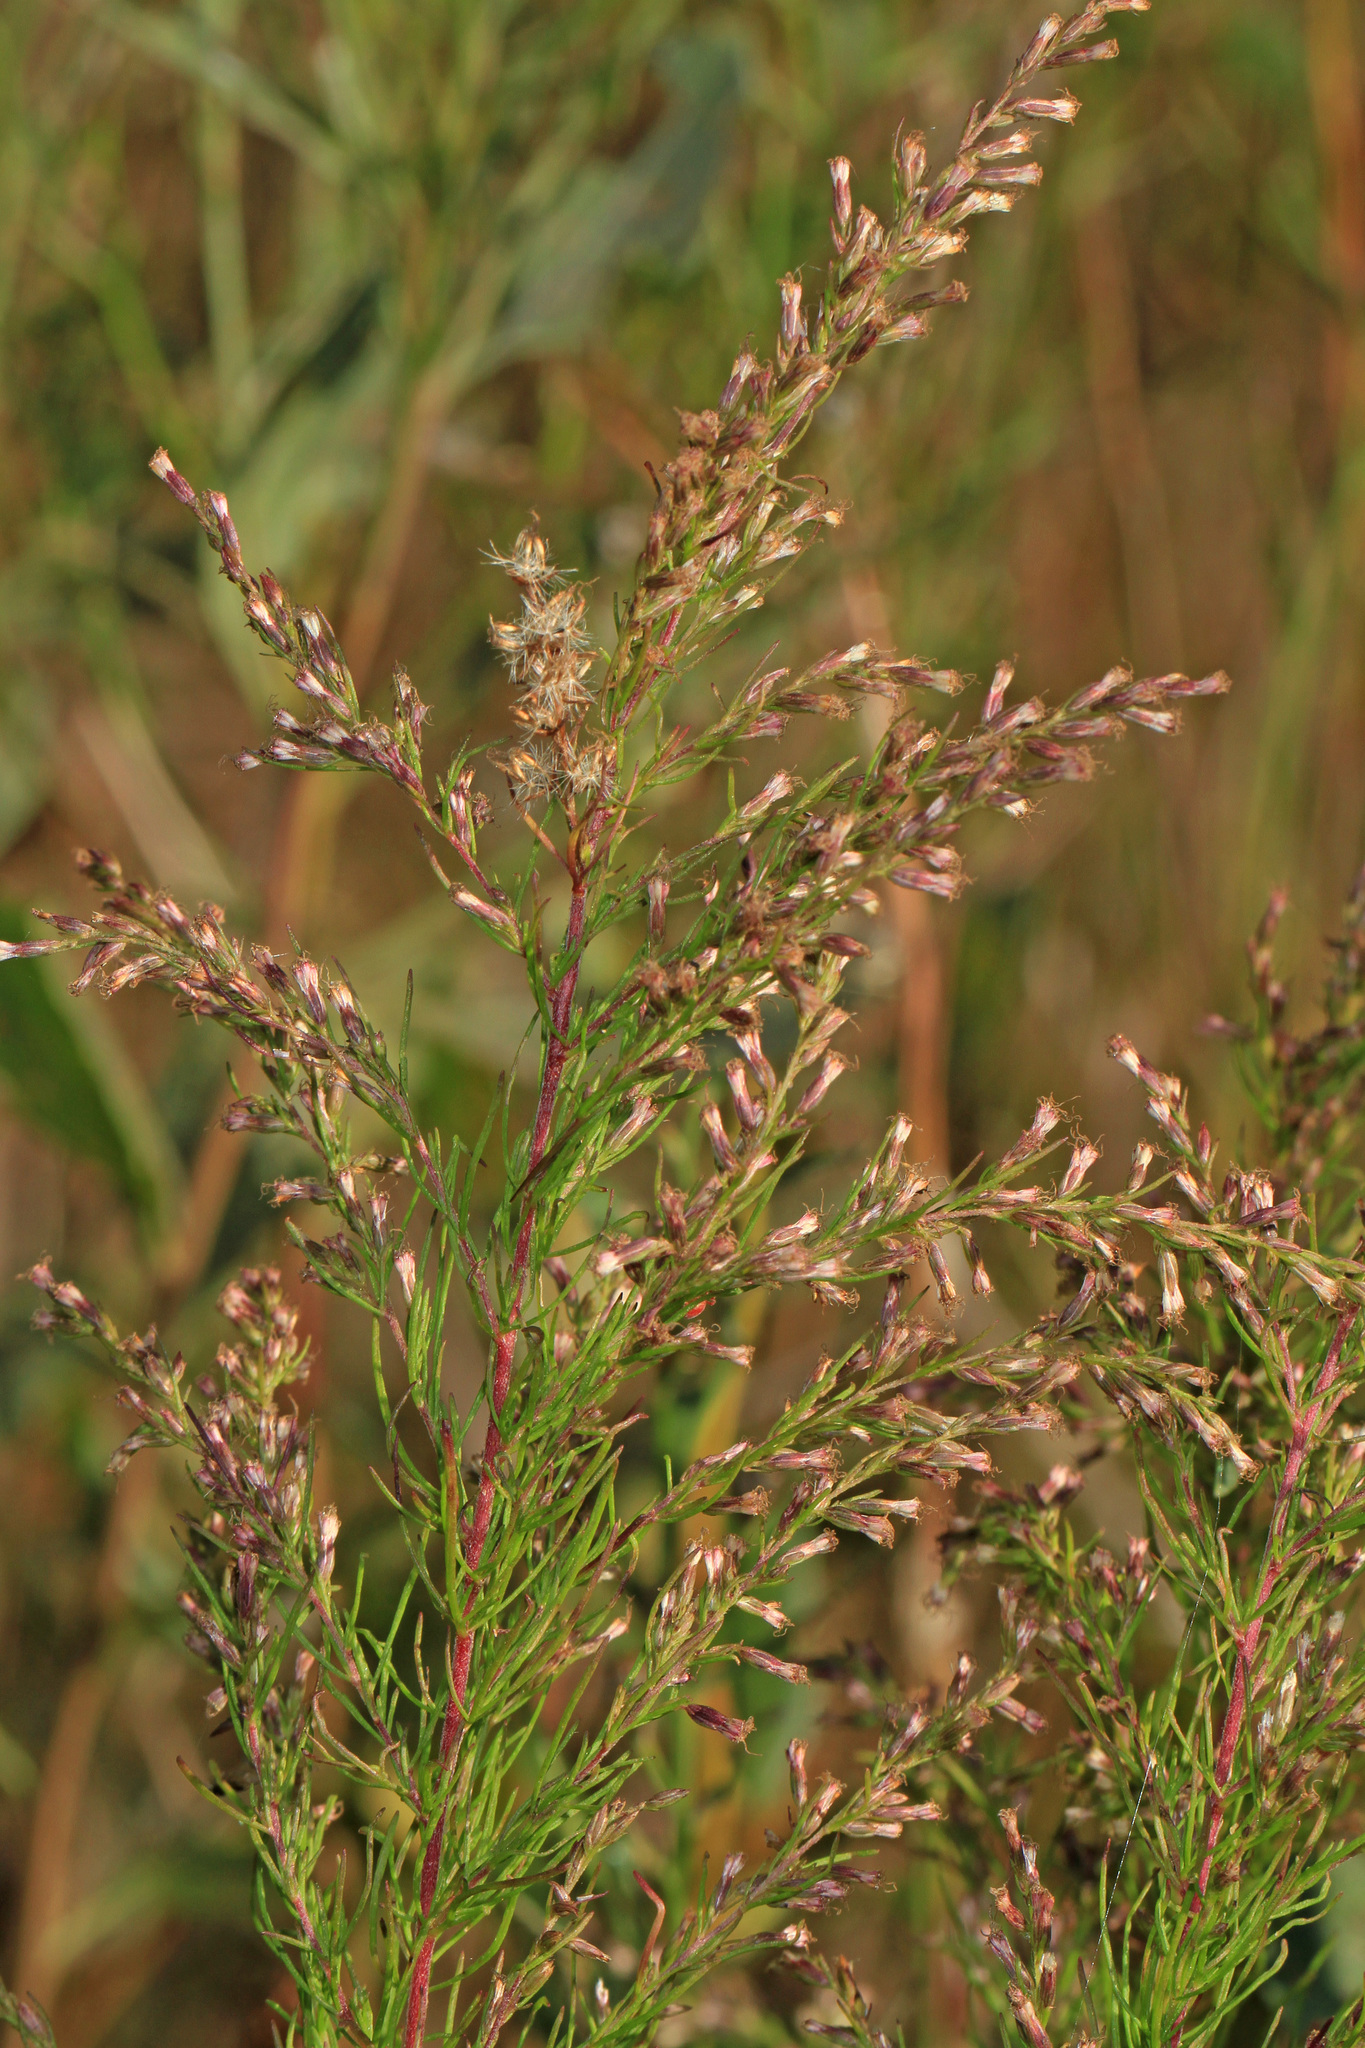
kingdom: Plantae
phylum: Tracheophyta
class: Magnoliopsida
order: Asterales
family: Asteraceae
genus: Eupatorium
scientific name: Eupatorium capillifolium
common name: Dog-fennel
